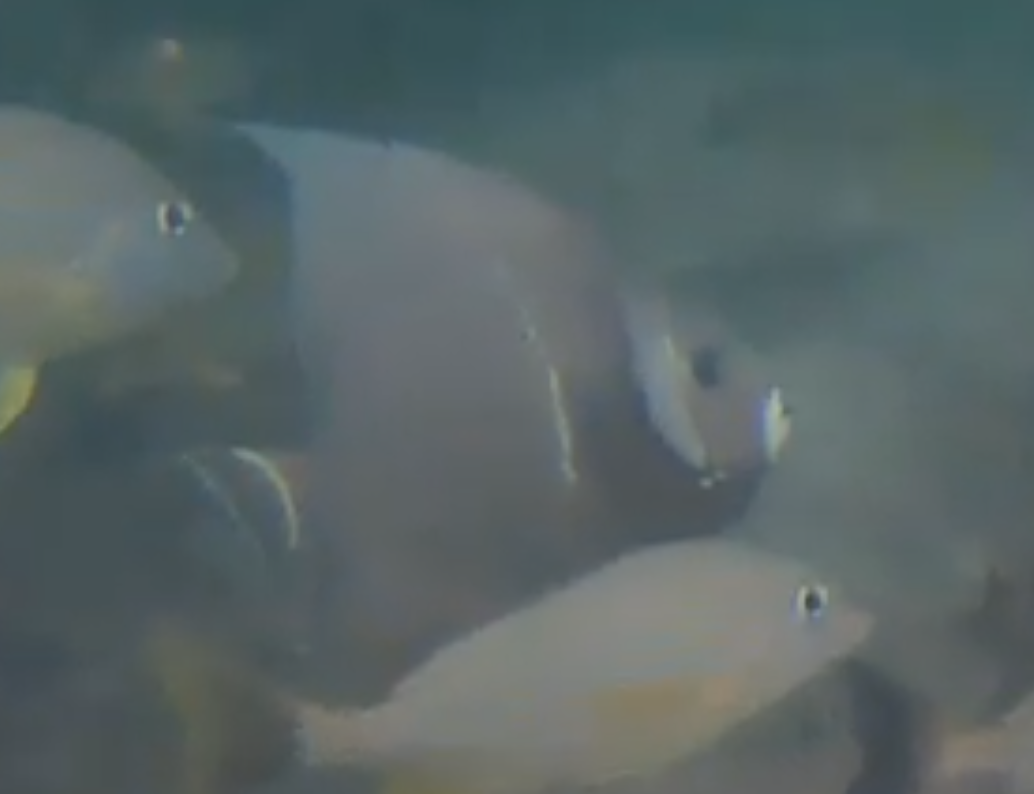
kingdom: Animalia
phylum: Chordata
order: Perciformes
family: Pomacanthidae
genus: Pomacanthus
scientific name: Pomacanthus arcuatus
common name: Gray angelfish
